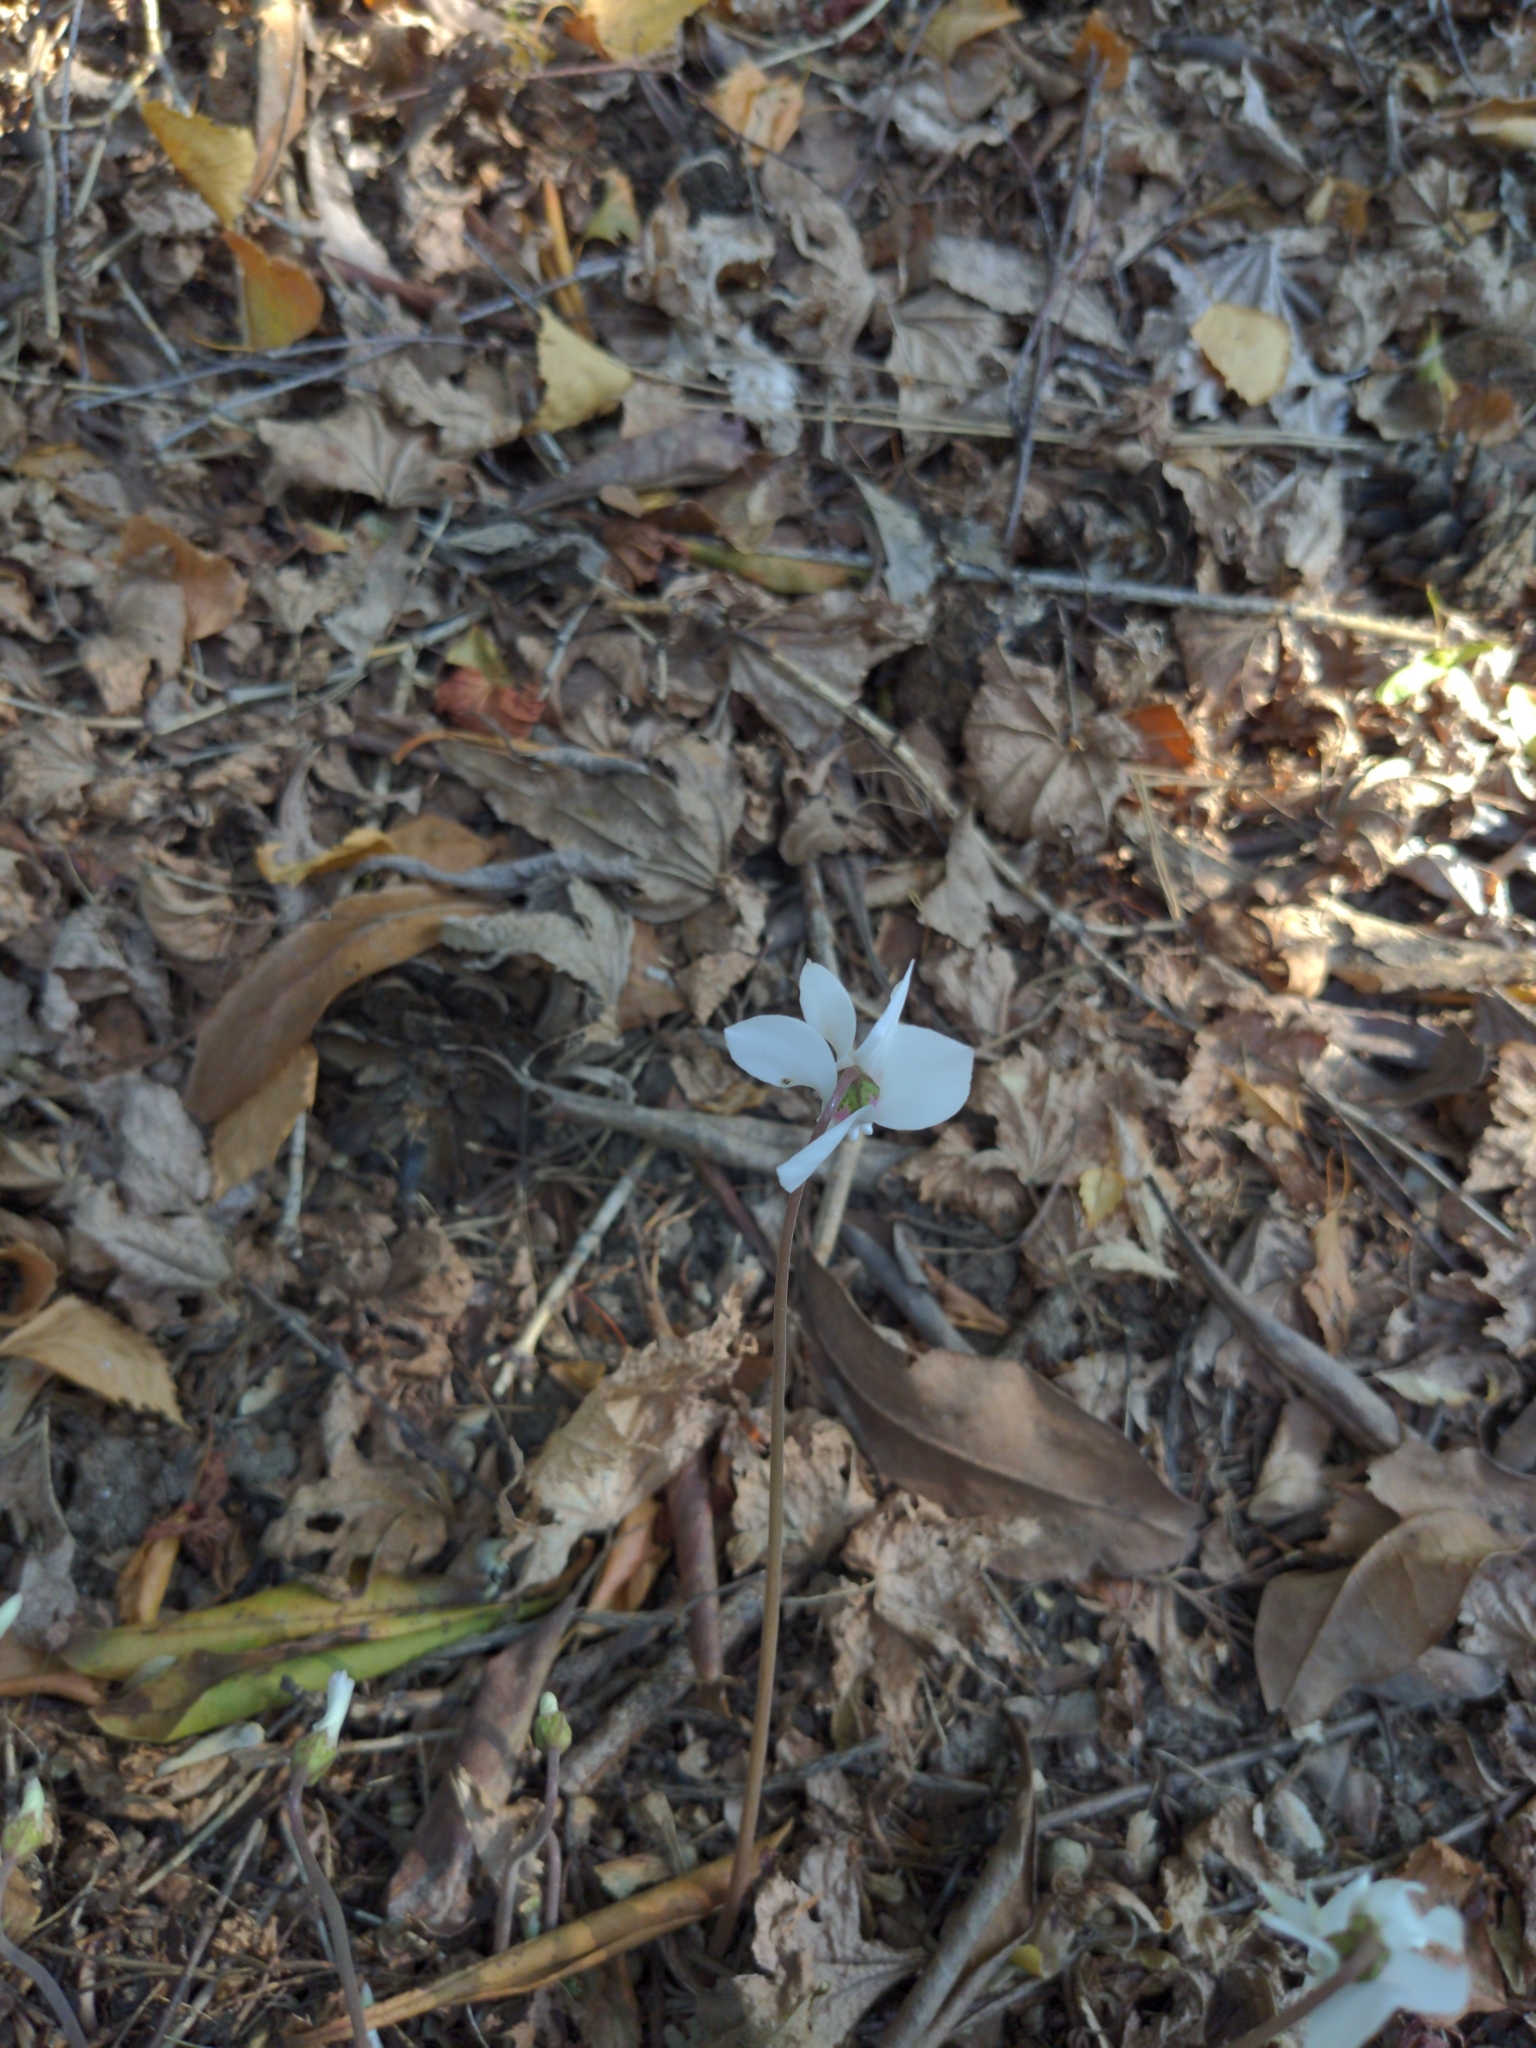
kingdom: Plantae
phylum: Tracheophyta
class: Magnoliopsida
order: Ericales
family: Primulaceae
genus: Cyclamen
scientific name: Cyclamen hederifolium
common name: Sowbread
